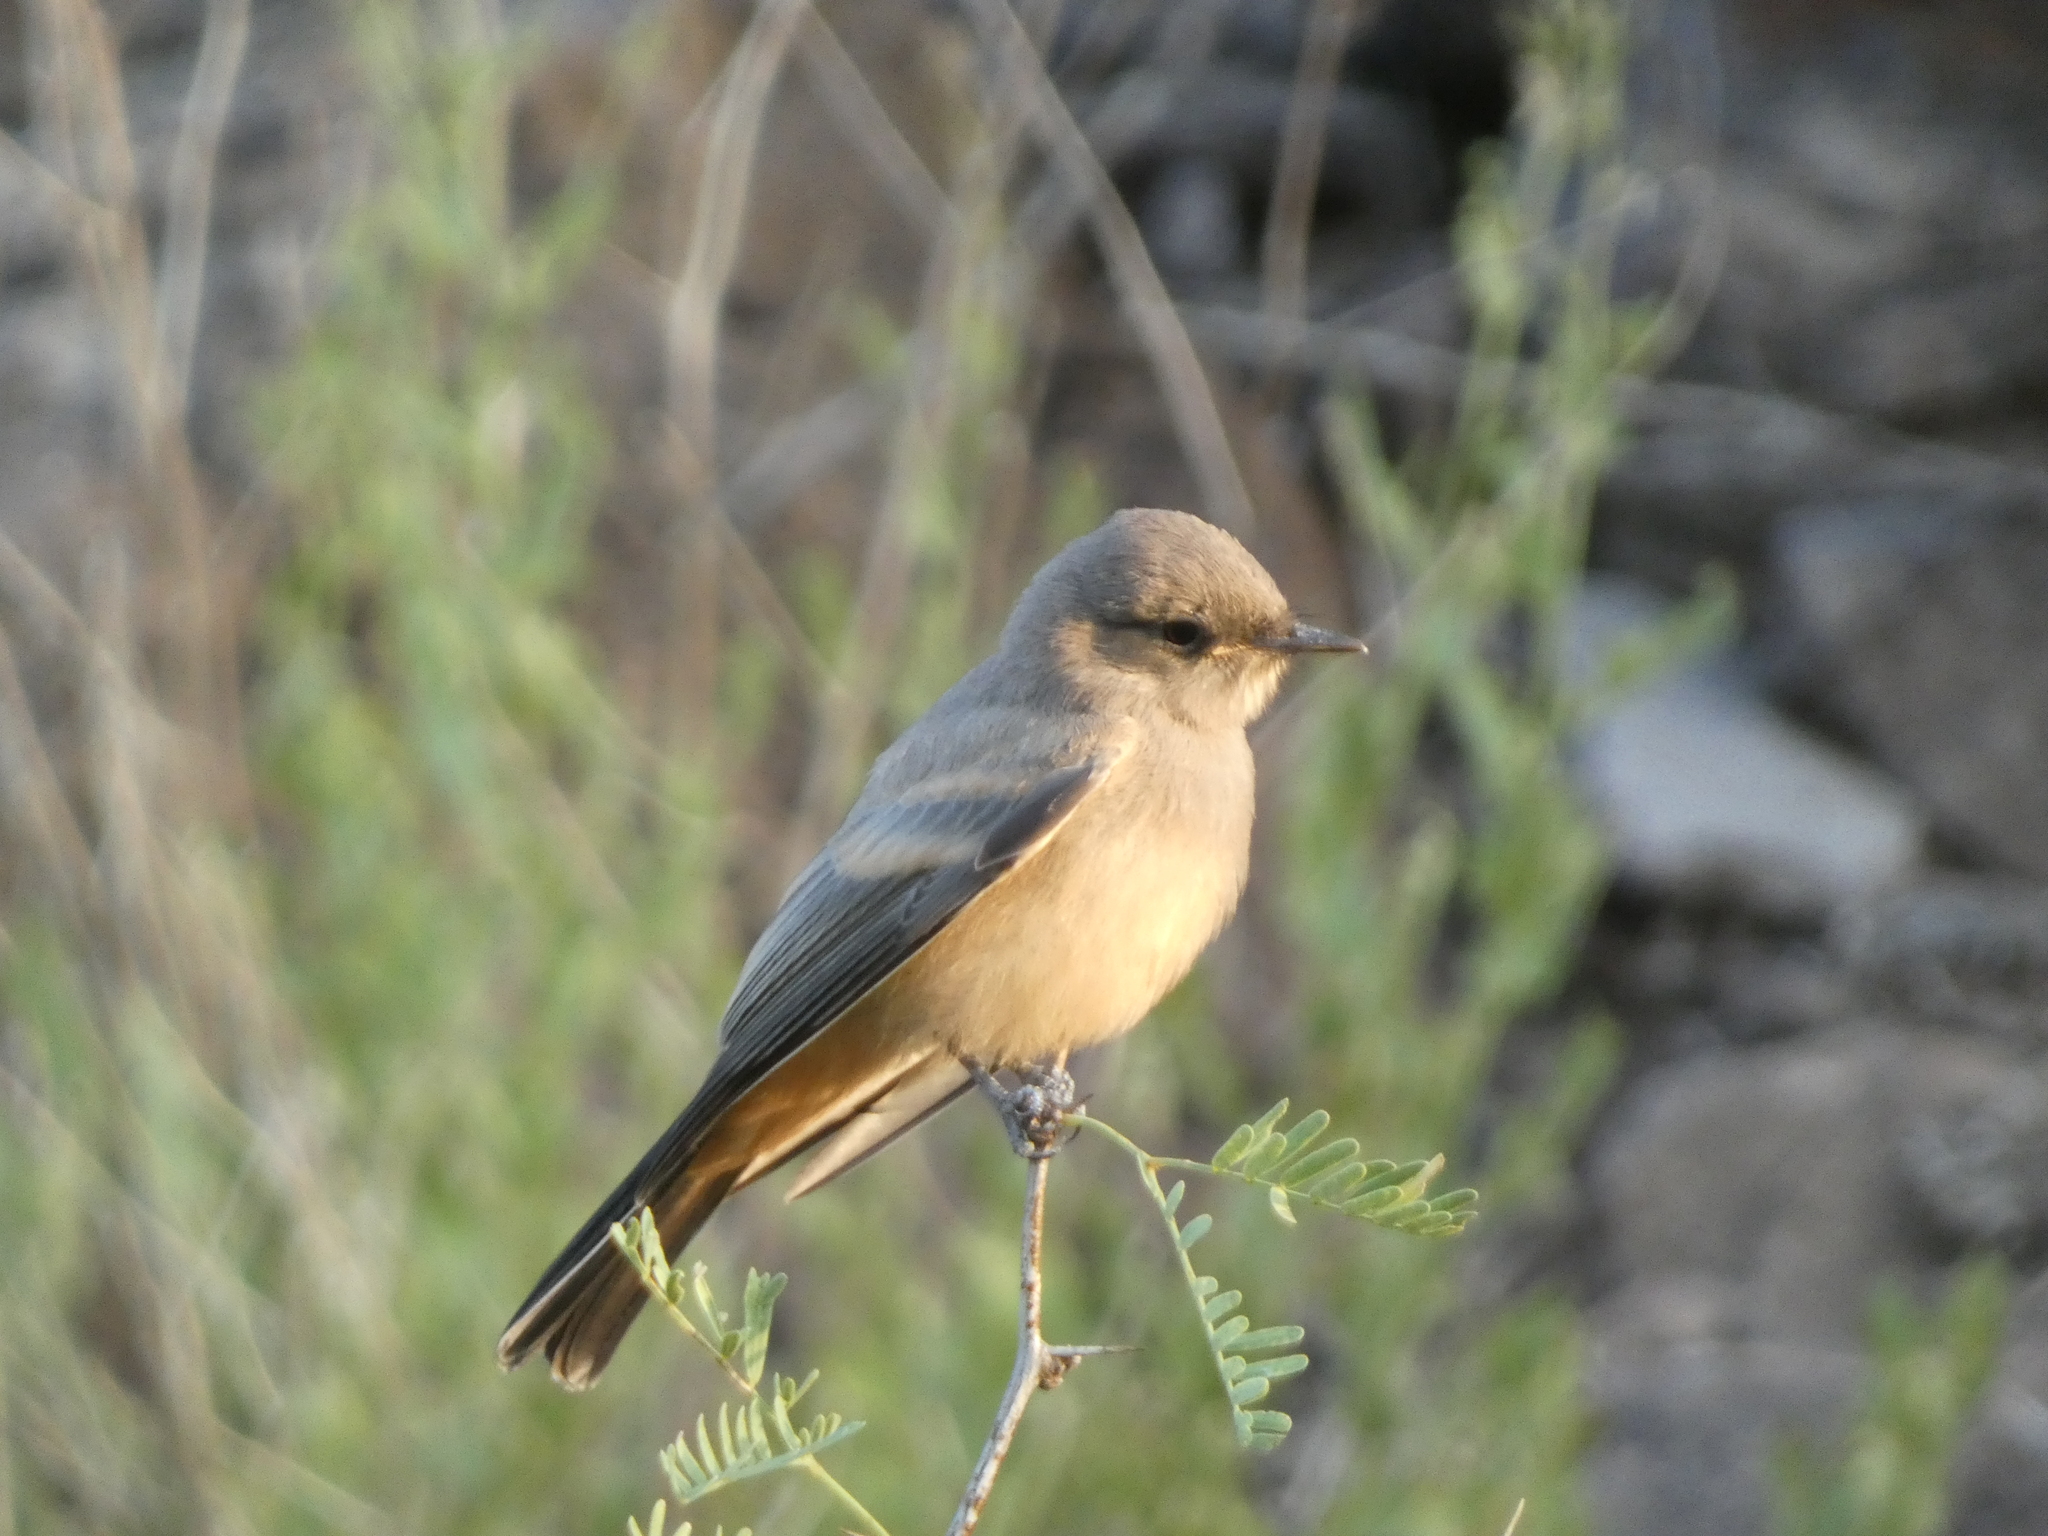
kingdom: Animalia
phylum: Chordata
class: Aves
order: Passeriformes
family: Tyrannidae
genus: Sayornis
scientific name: Sayornis saya
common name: Say's phoebe
